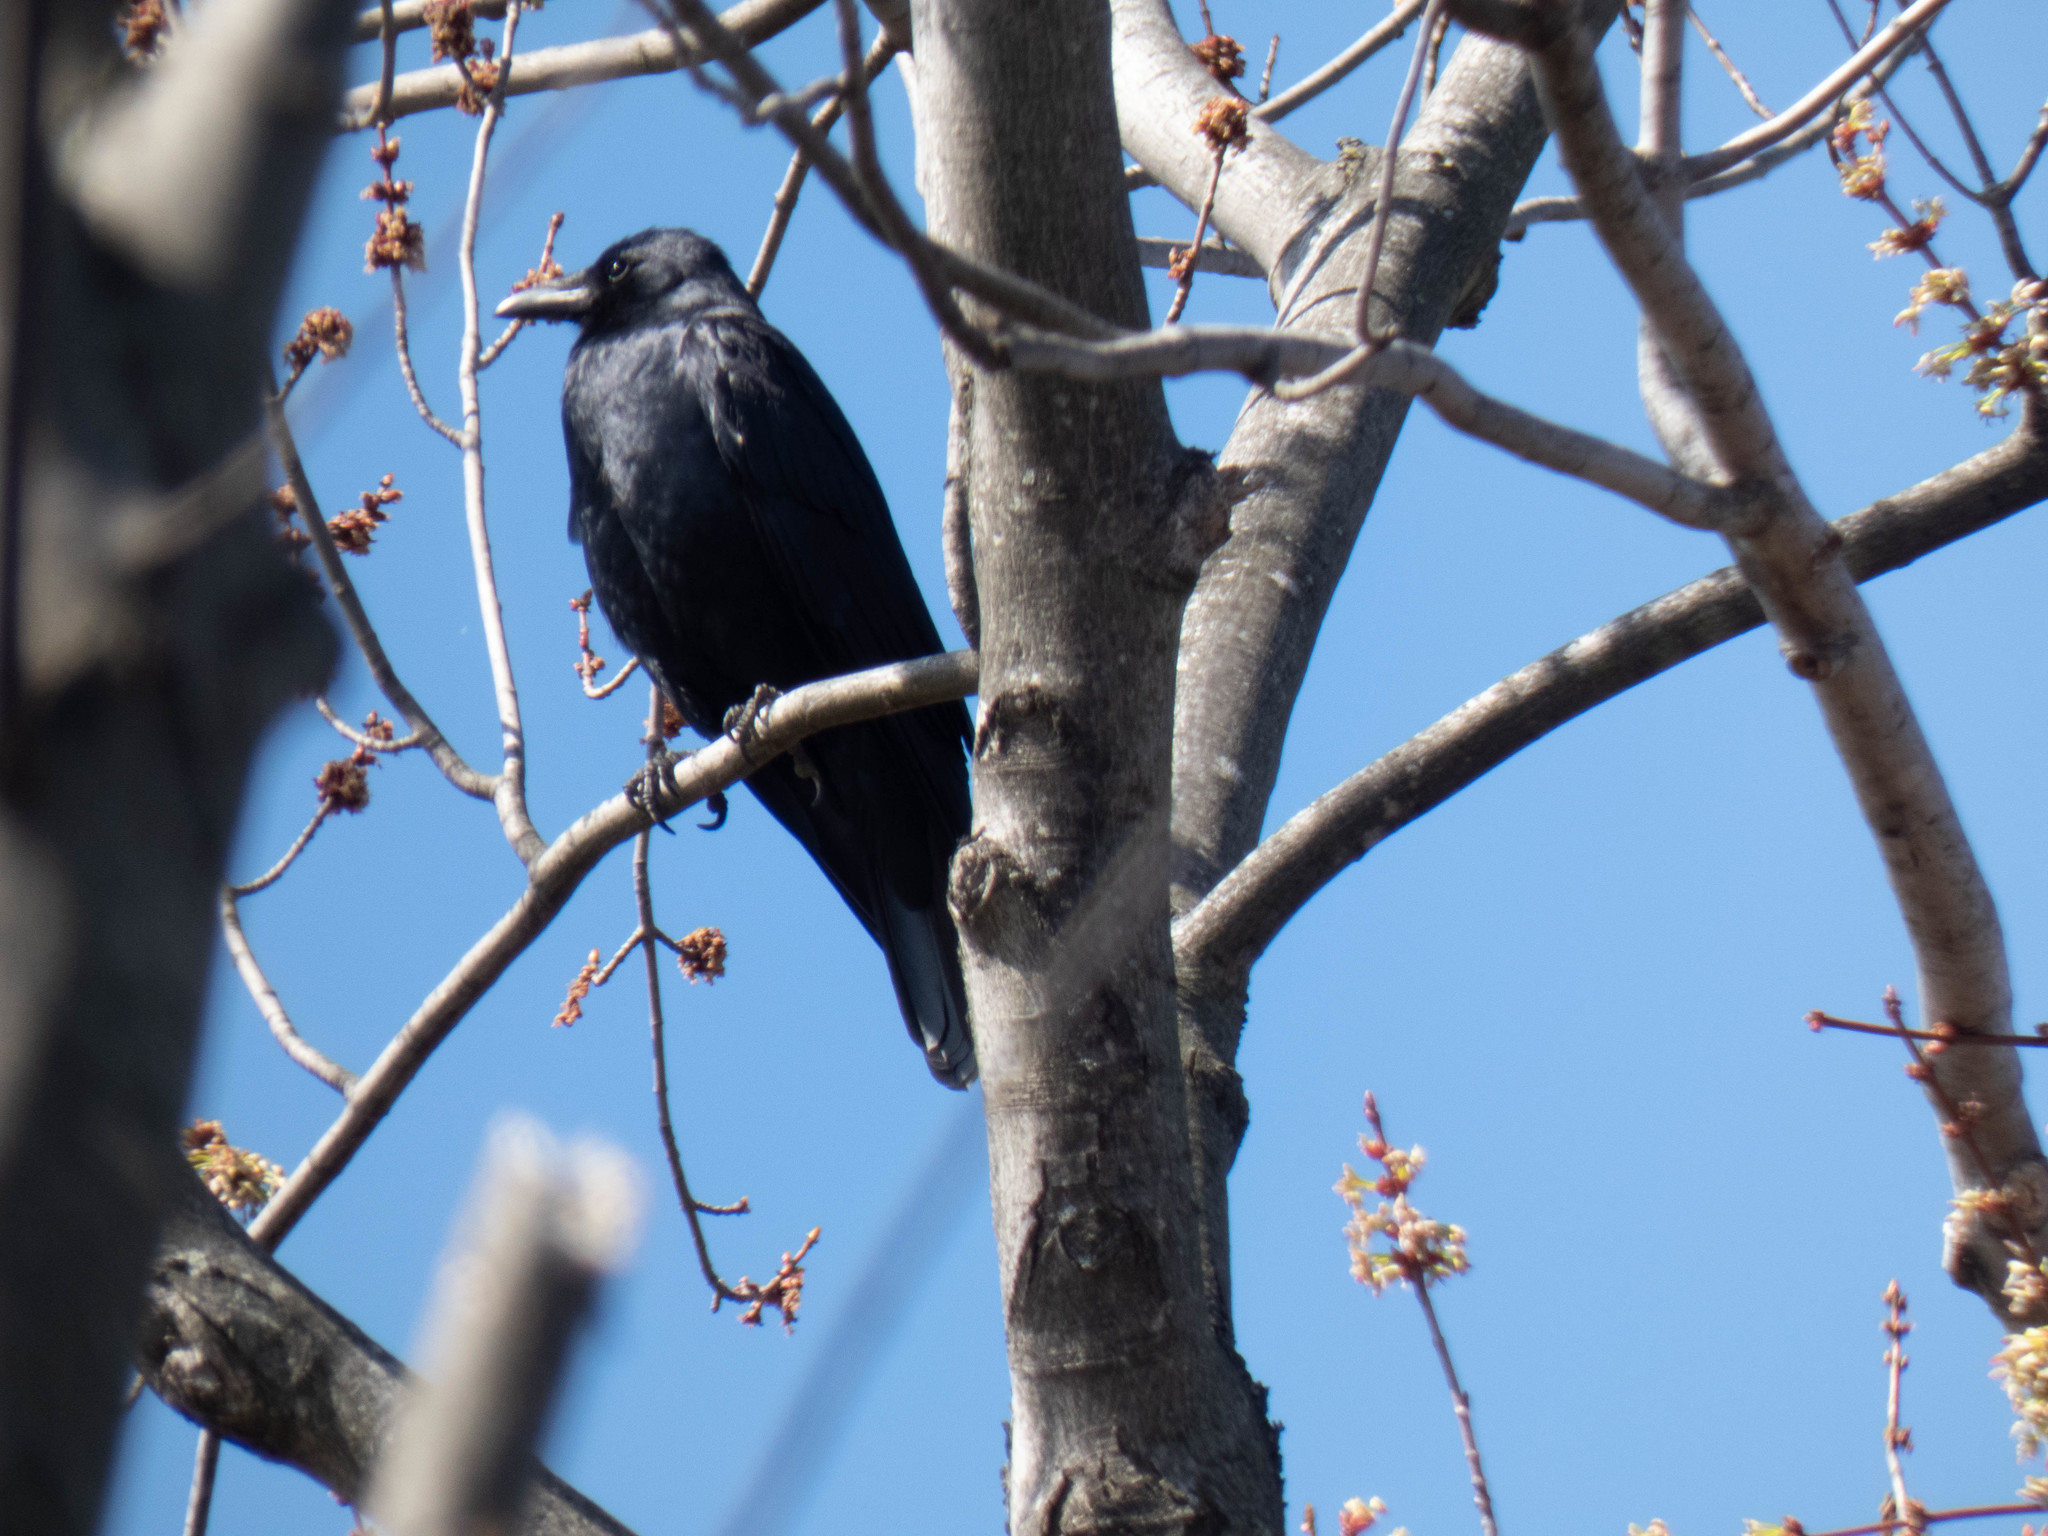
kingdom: Animalia
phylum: Chordata
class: Aves
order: Passeriformes
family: Corvidae
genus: Corvus
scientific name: Corvus brachyrhynchos
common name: American crow
